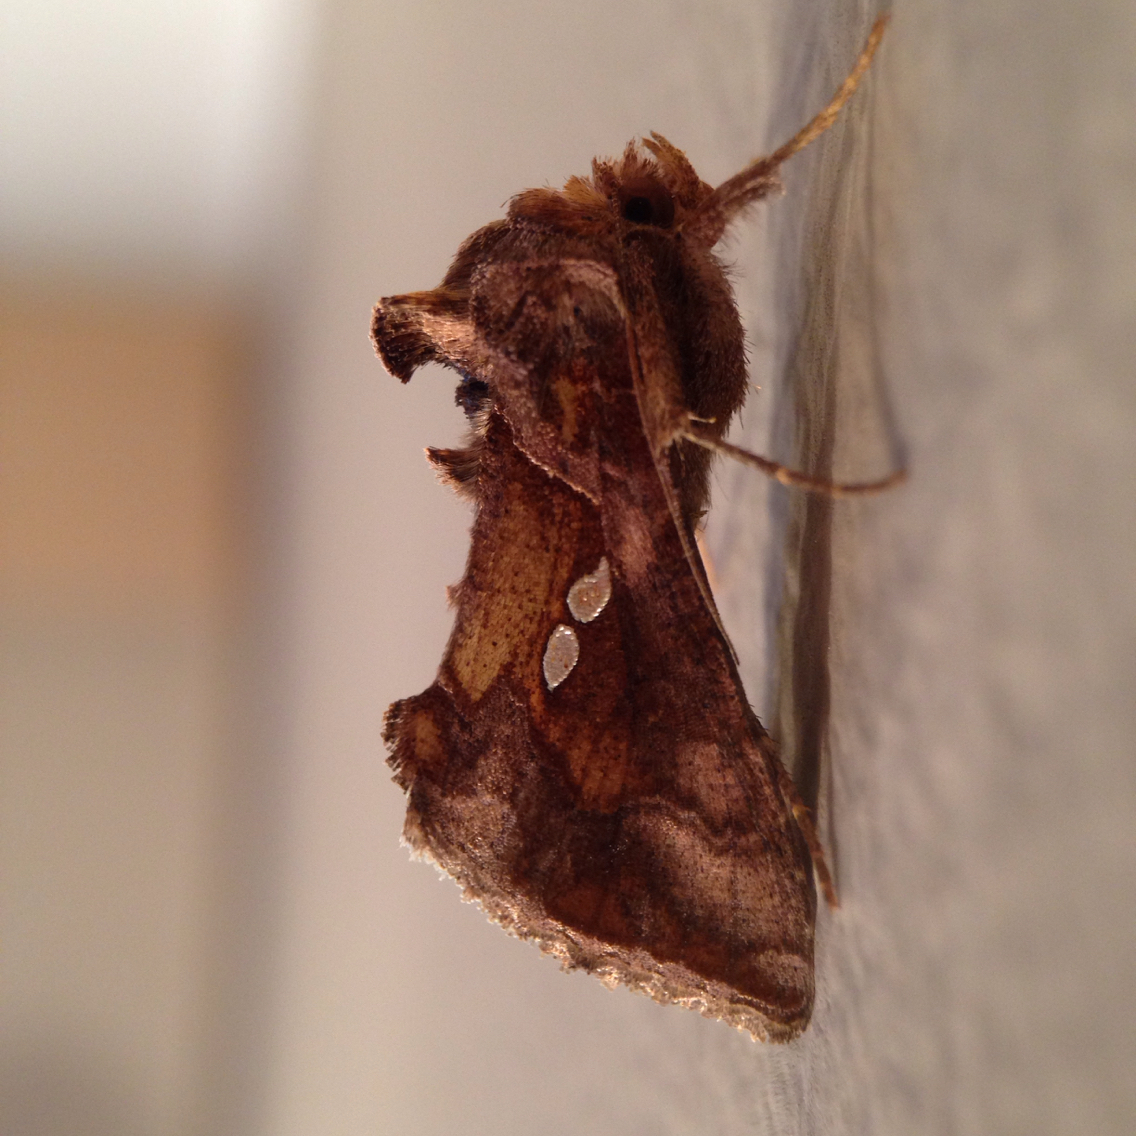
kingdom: Animalia
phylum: Arthropoda
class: Insecta
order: Lepidoptera
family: Noctuidae
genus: Chrysodeixis
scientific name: Chrysodeixis chalcites
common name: Golden twin-spot
